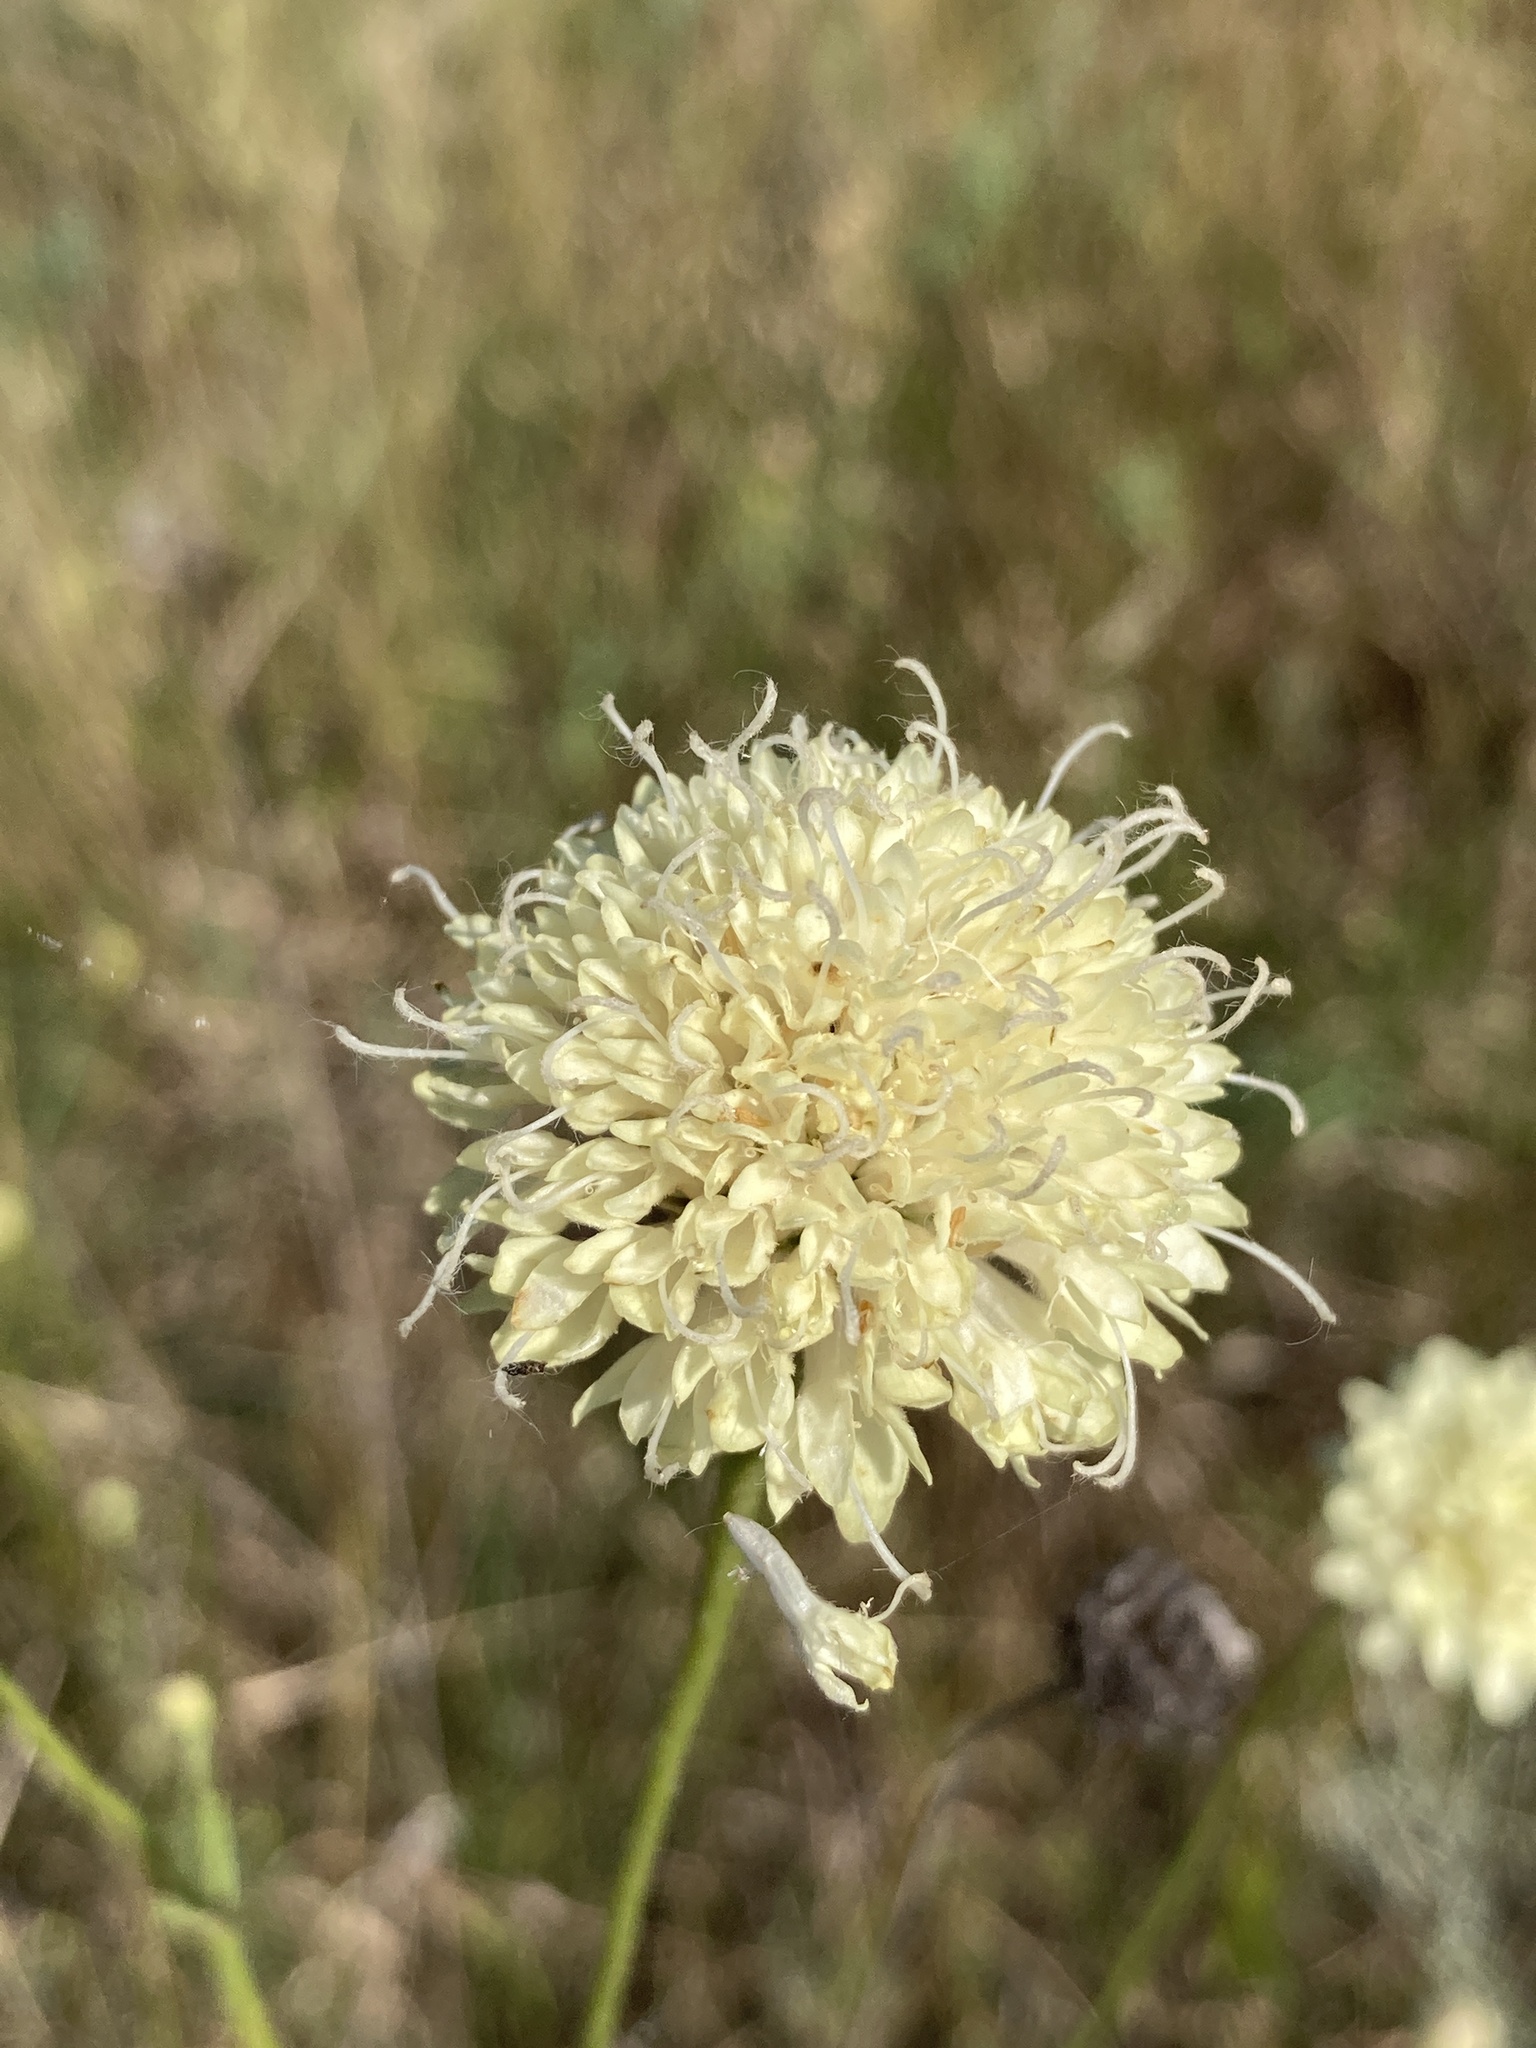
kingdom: Plantae
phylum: Tracheophyta
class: Magnoliopsida
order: Dipsacales
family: Caprifoliaceae
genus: Cephalaria
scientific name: Cephalaria uralensis
